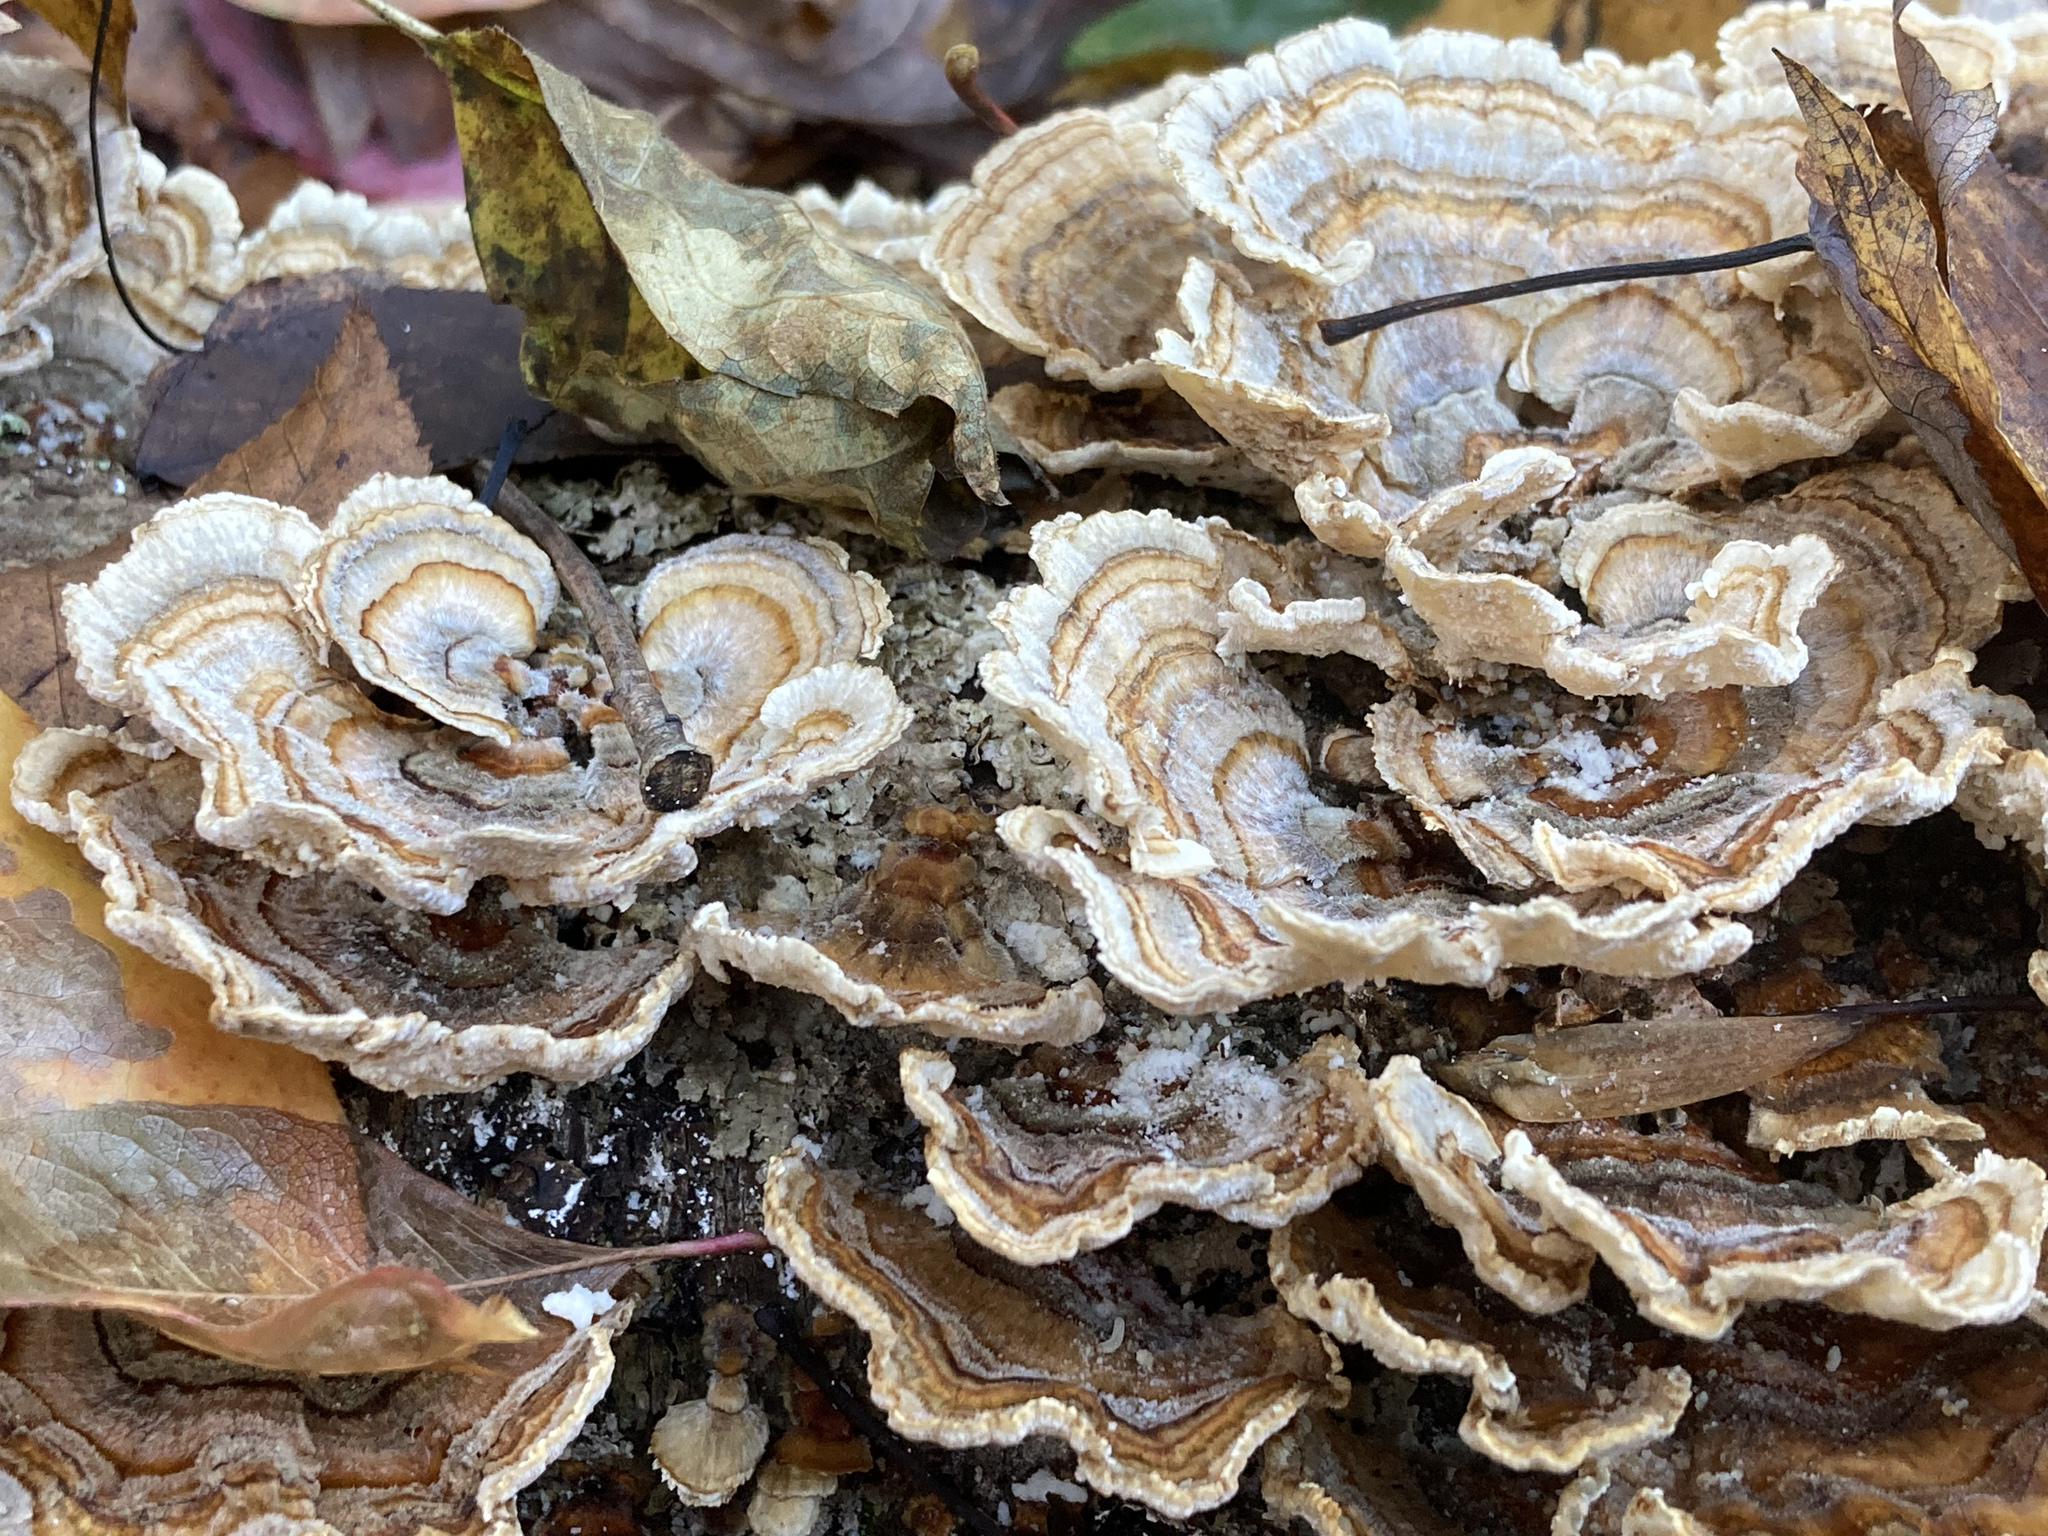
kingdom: Fungi
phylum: Basidiomycota
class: Agaricomycetes
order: Polyporales
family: Polyporaceae
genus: Trametes
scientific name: Trametes versicolor
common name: Turkeytail
